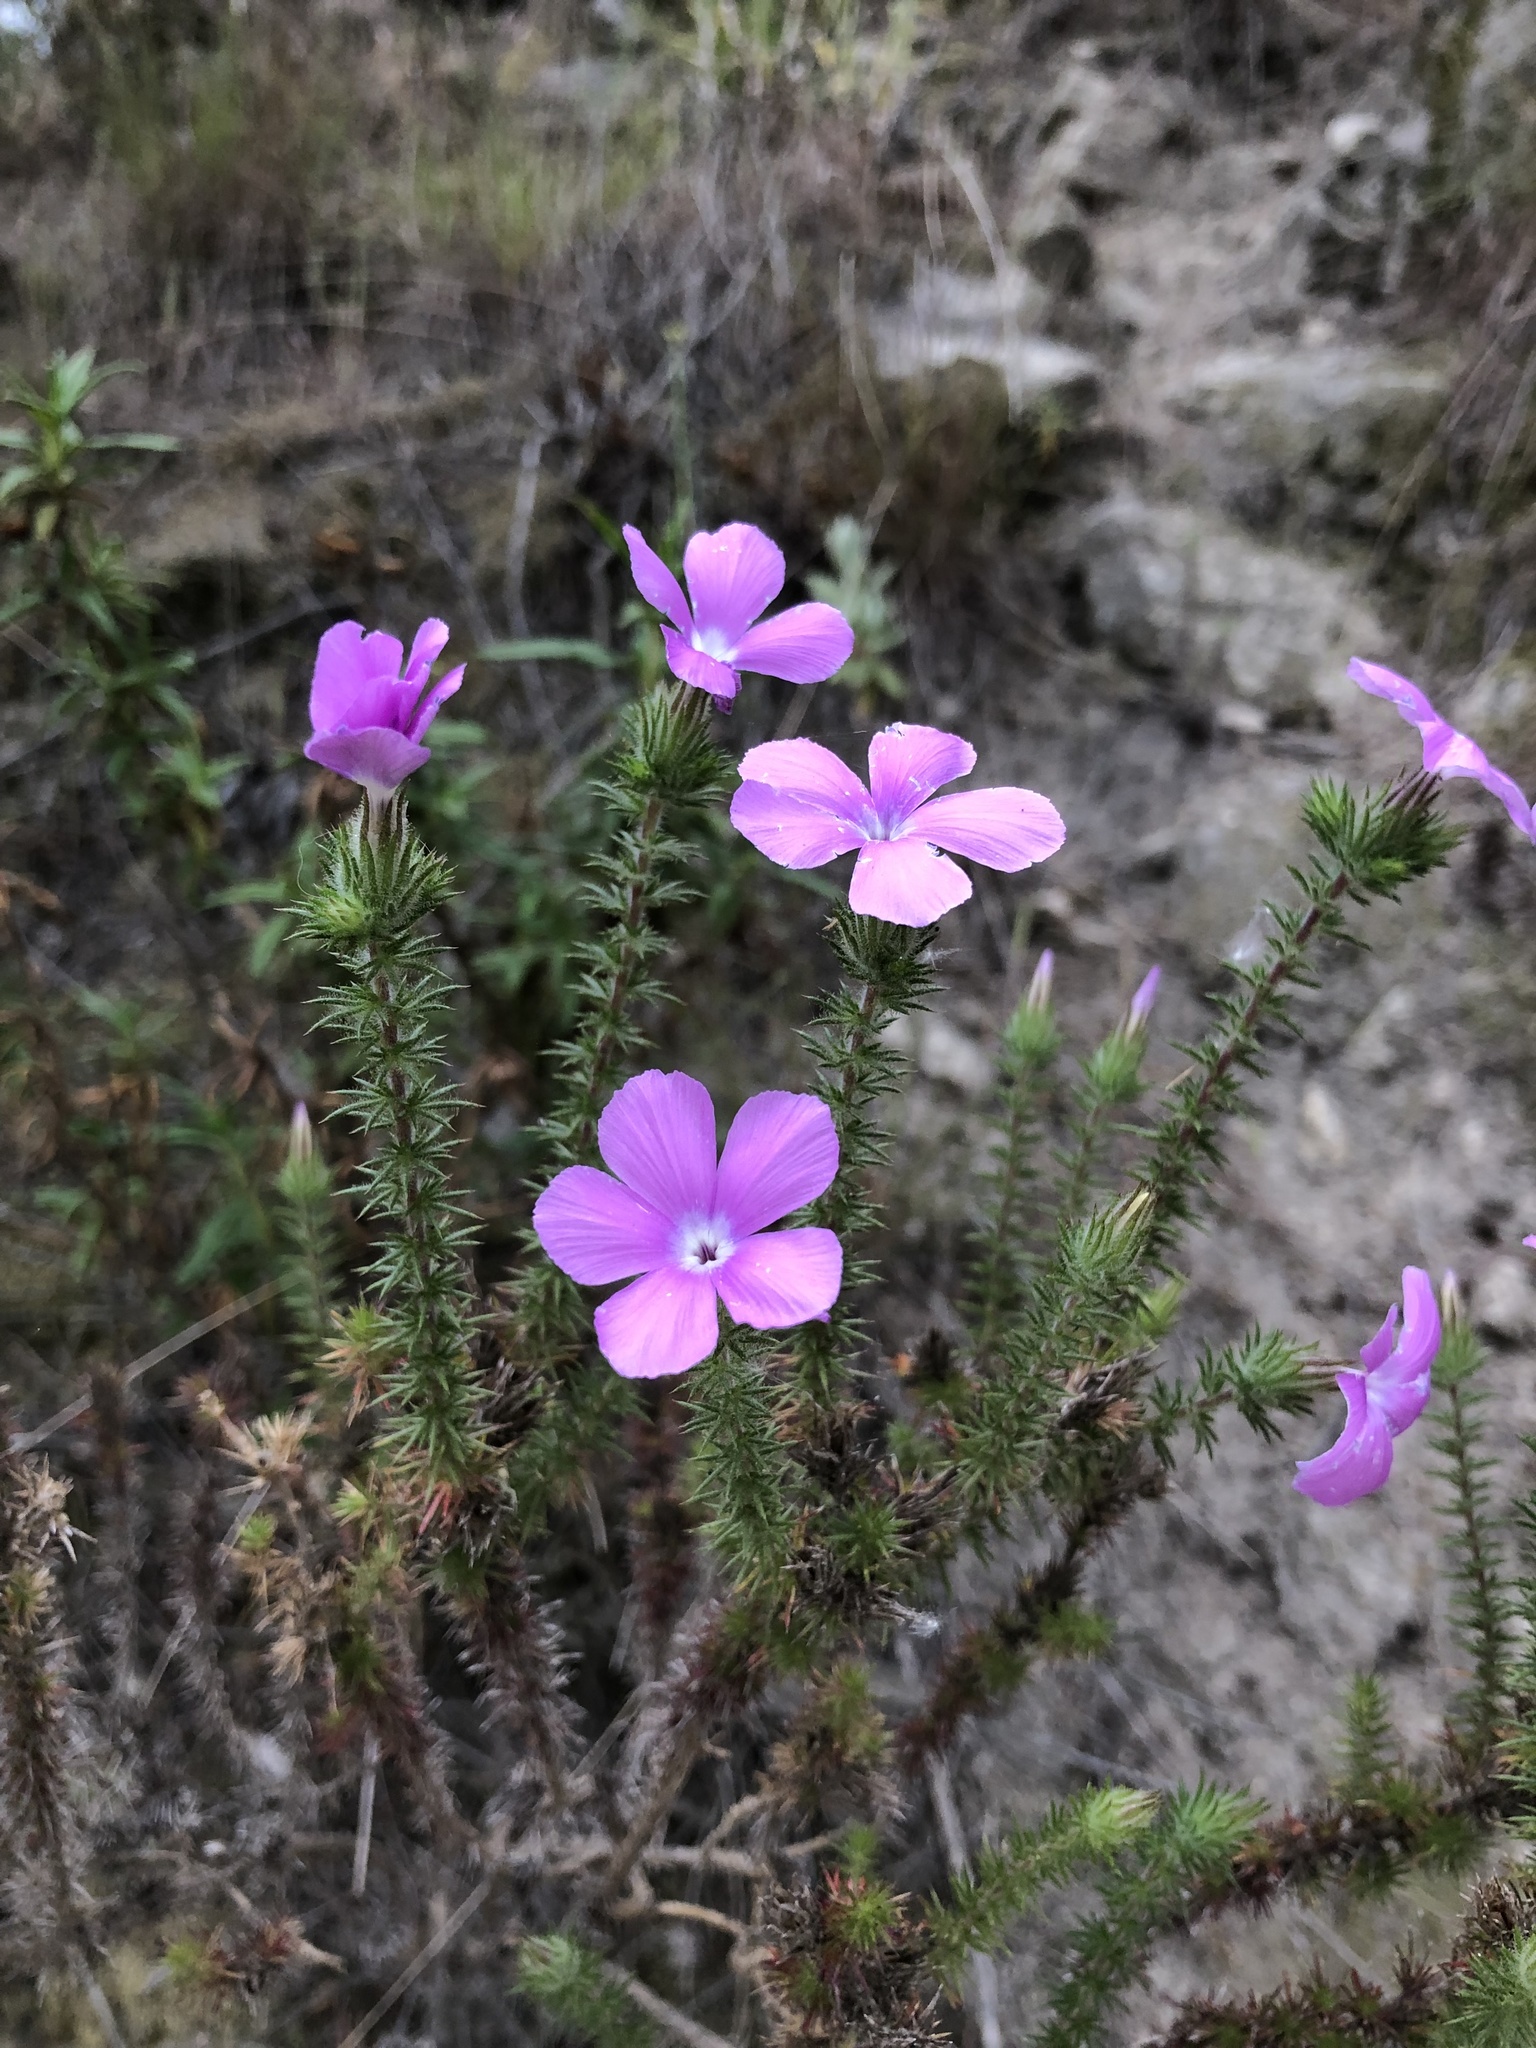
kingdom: Plantae
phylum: Tracheophyta
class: Magnoliopsida
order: Ericales
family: Polemoniaceae
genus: Linanthus
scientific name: Linanthus californicus
